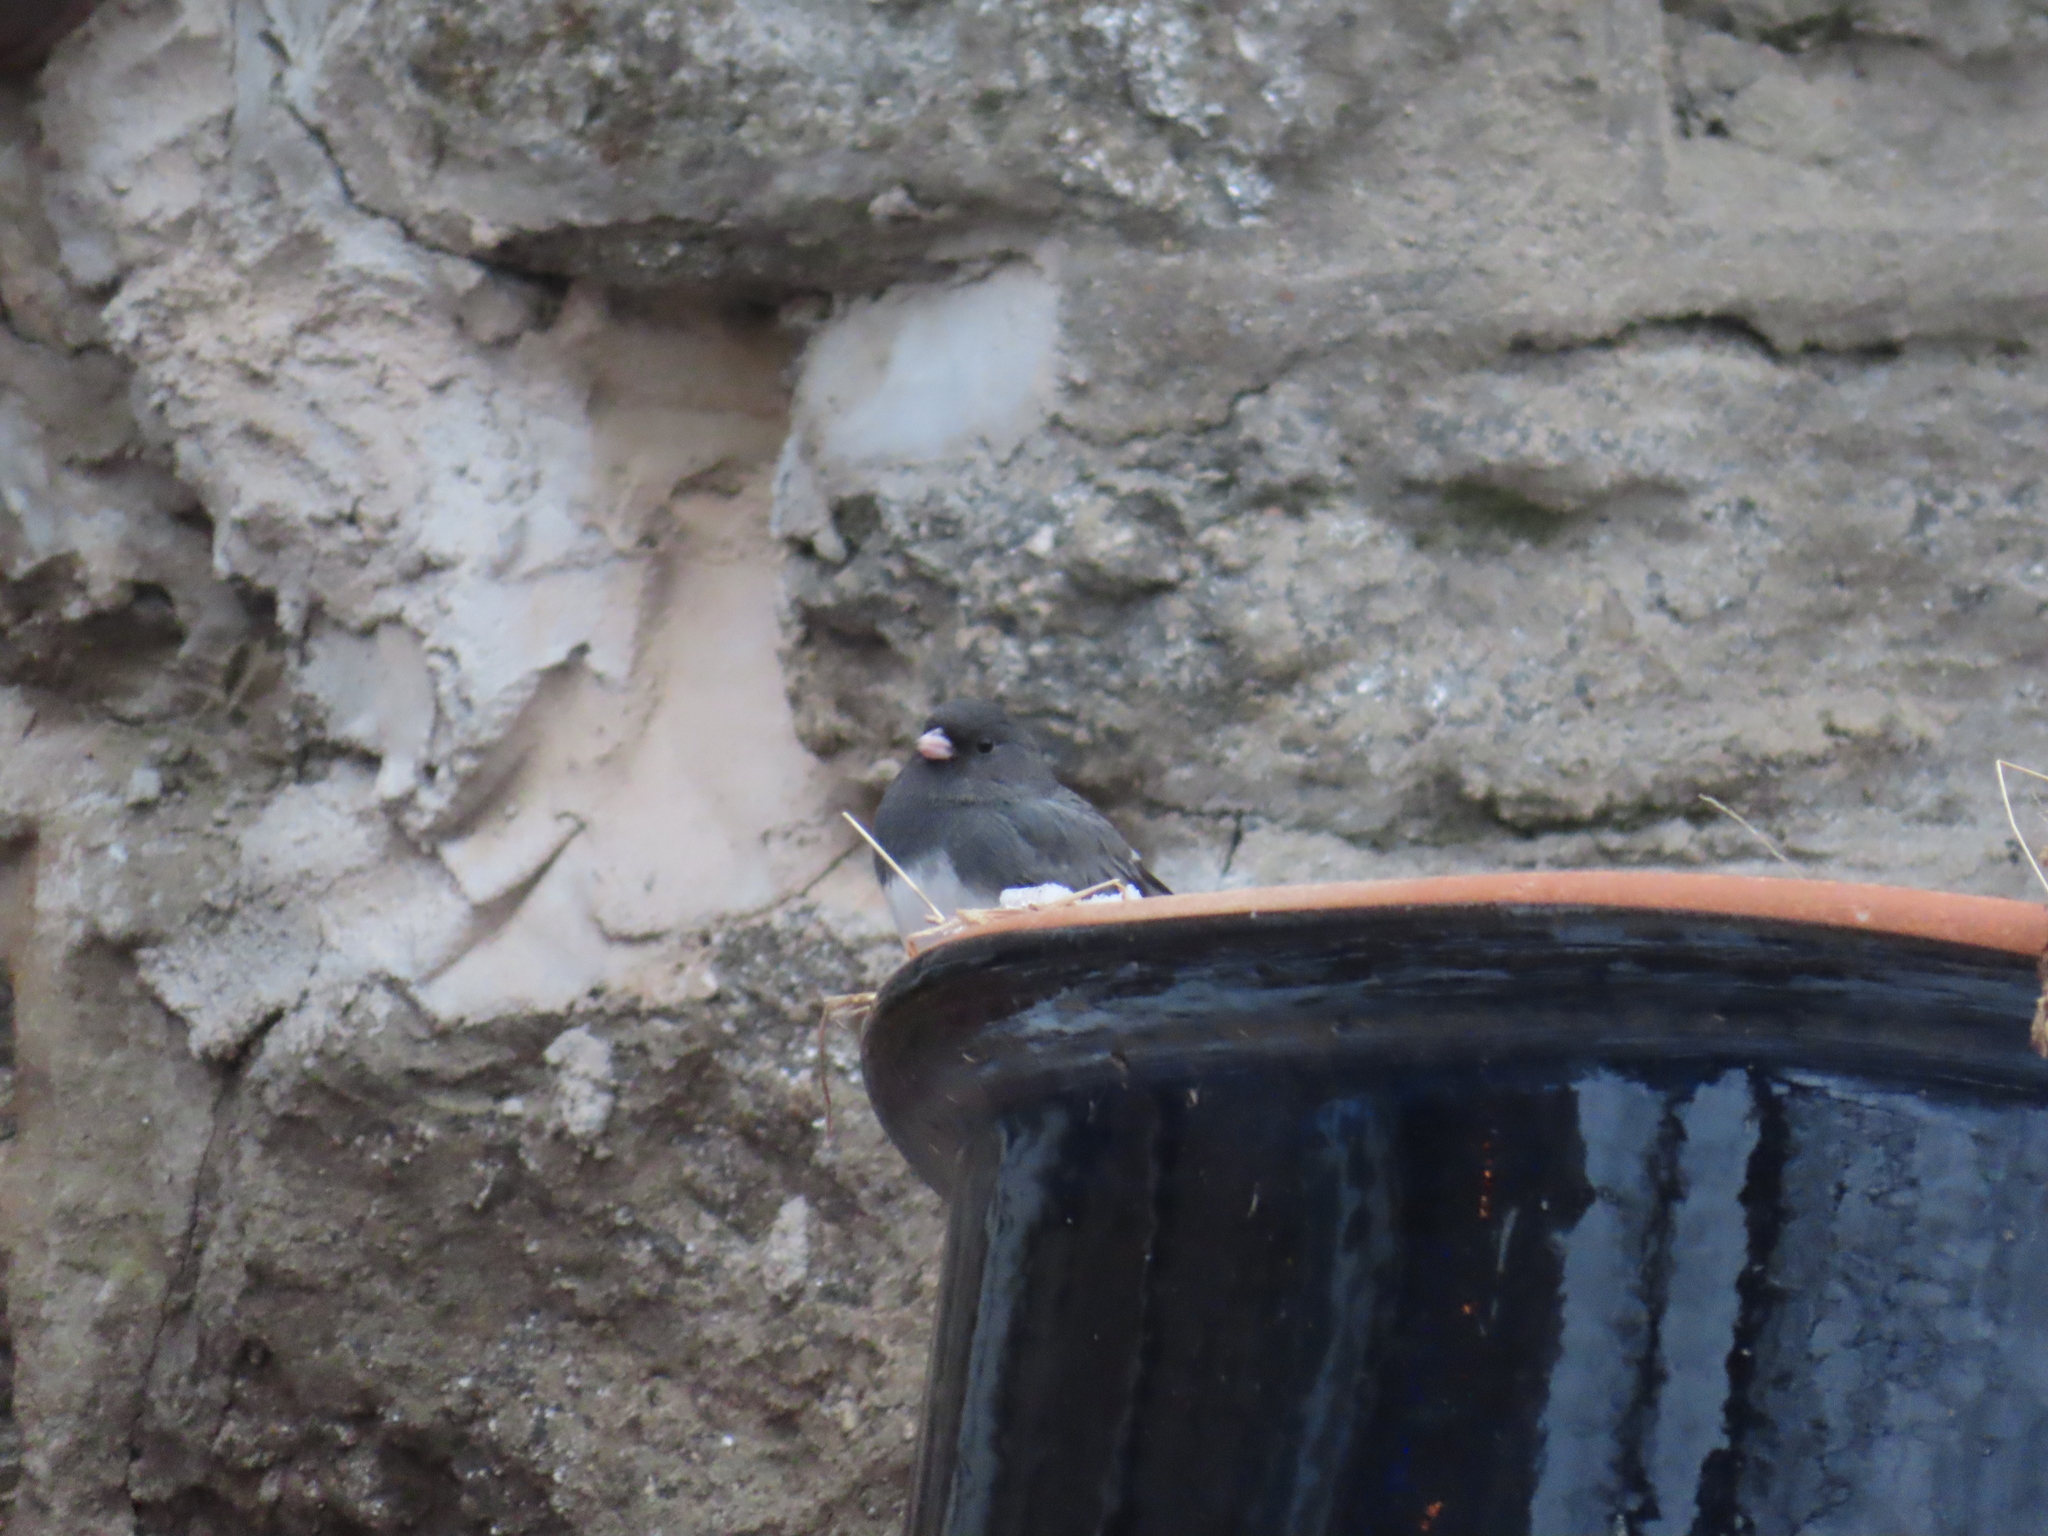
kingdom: Animalia
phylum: Chordata
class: Aves
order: Passeriformes
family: Passerellidae
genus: Junco
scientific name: Junco hyemalis
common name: Dark-eyed junco
